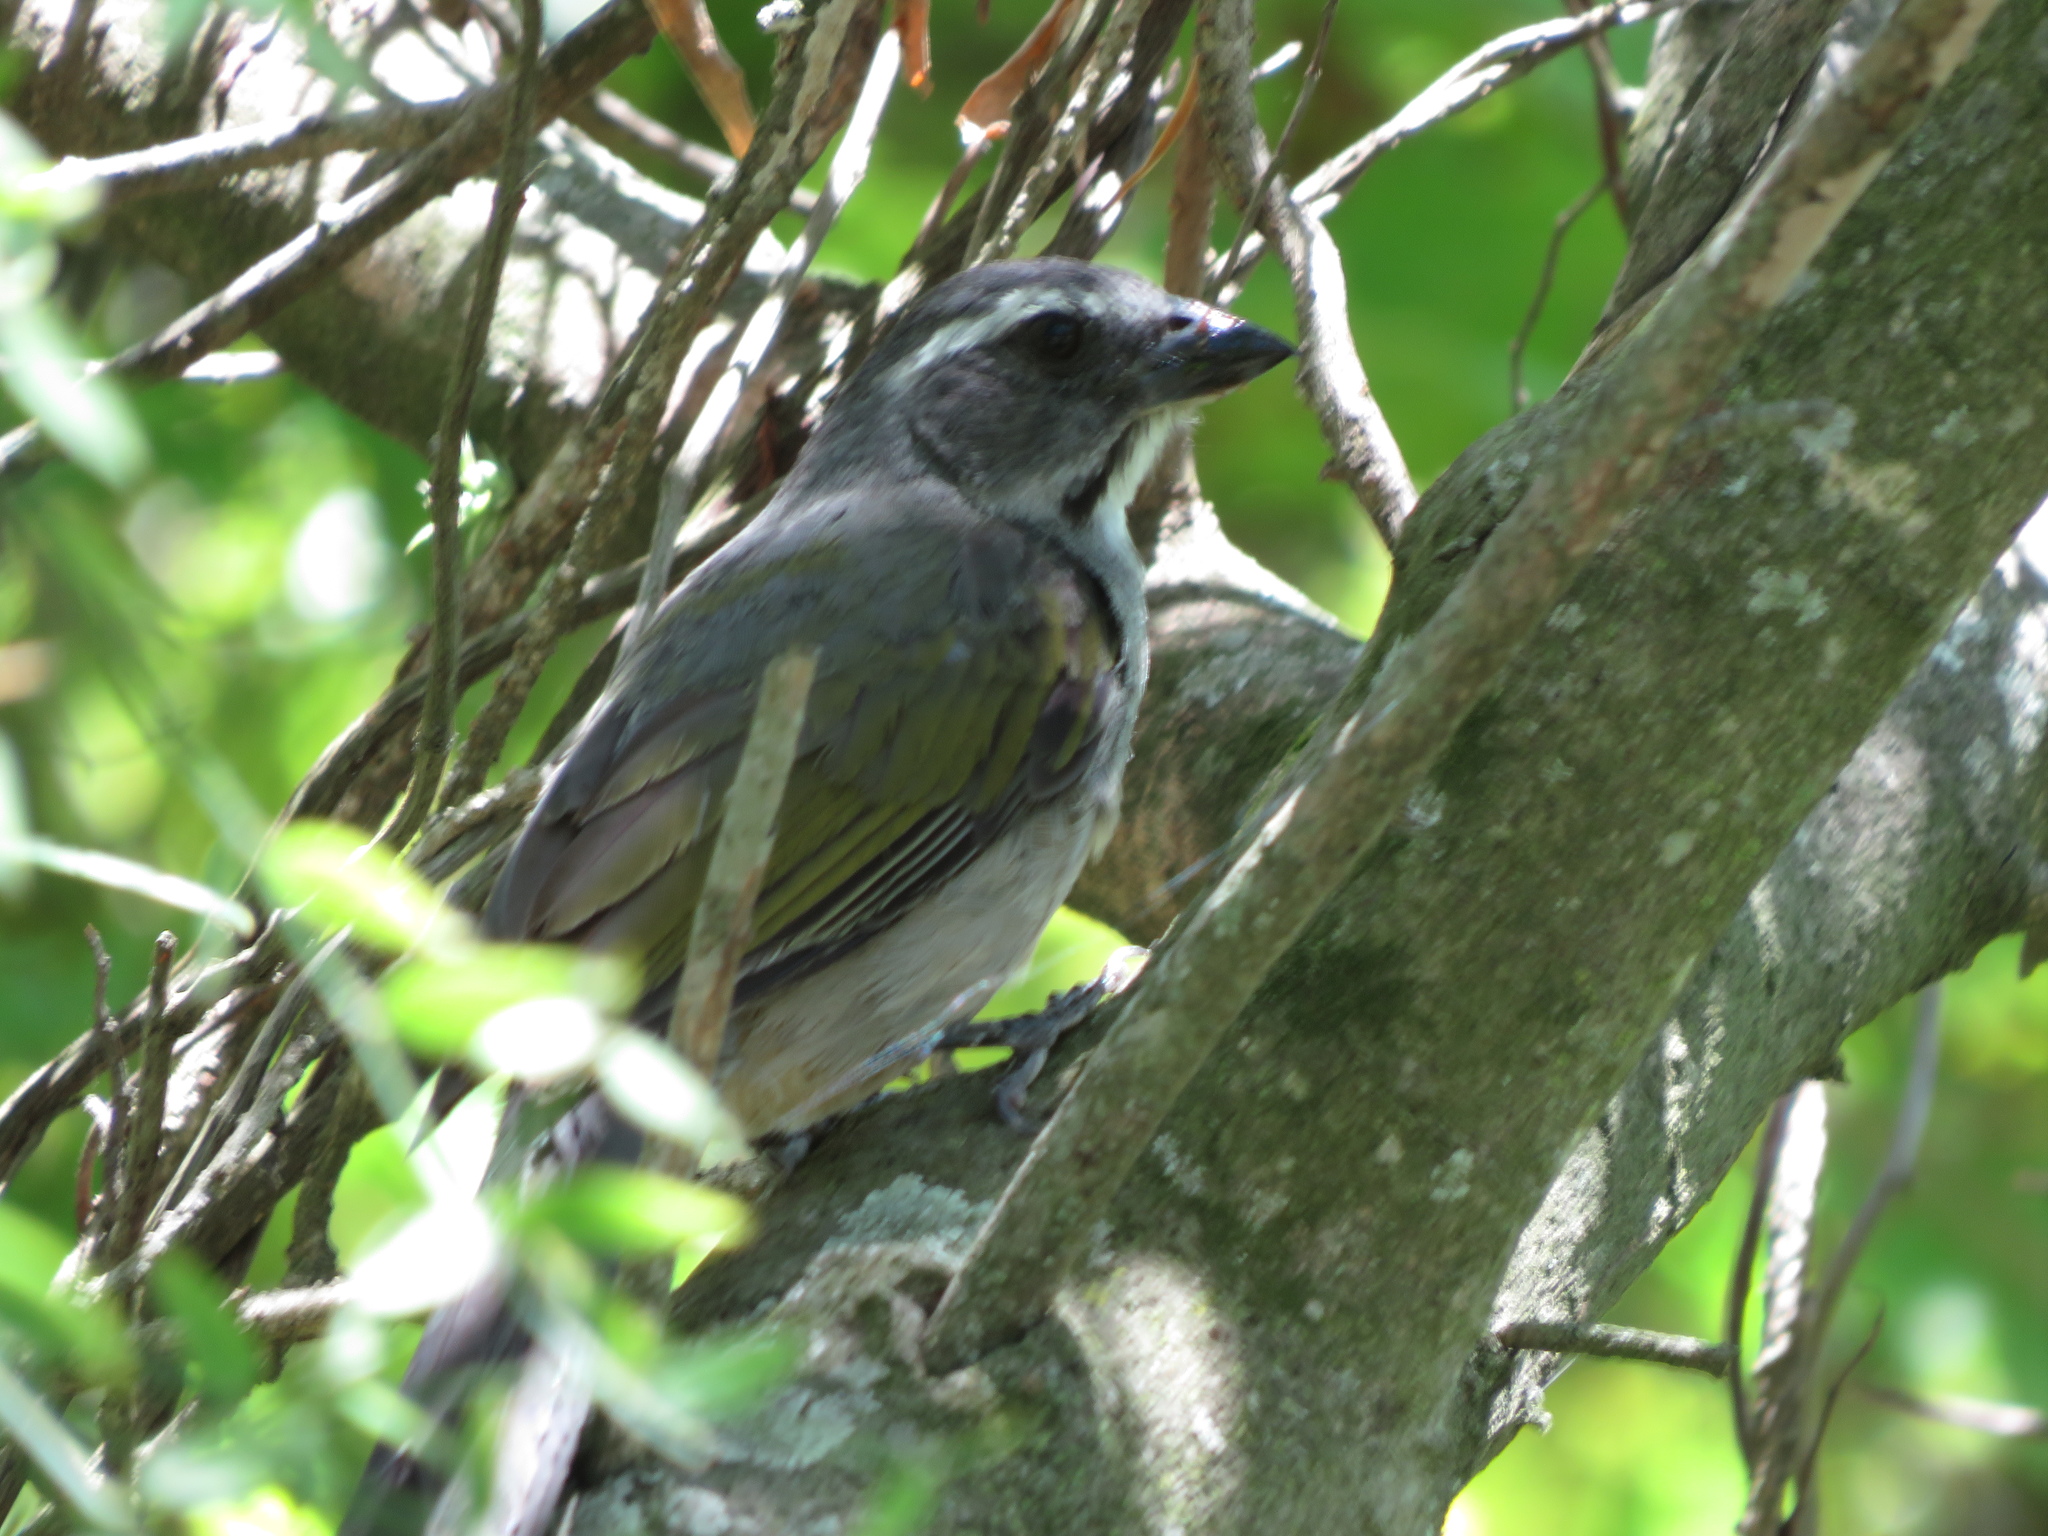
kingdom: Animalia
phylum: Chordata
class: Aves
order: Passeriformes
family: Thraupidae
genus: Saltator
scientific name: Saltator similis
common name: Green-winged saltator
